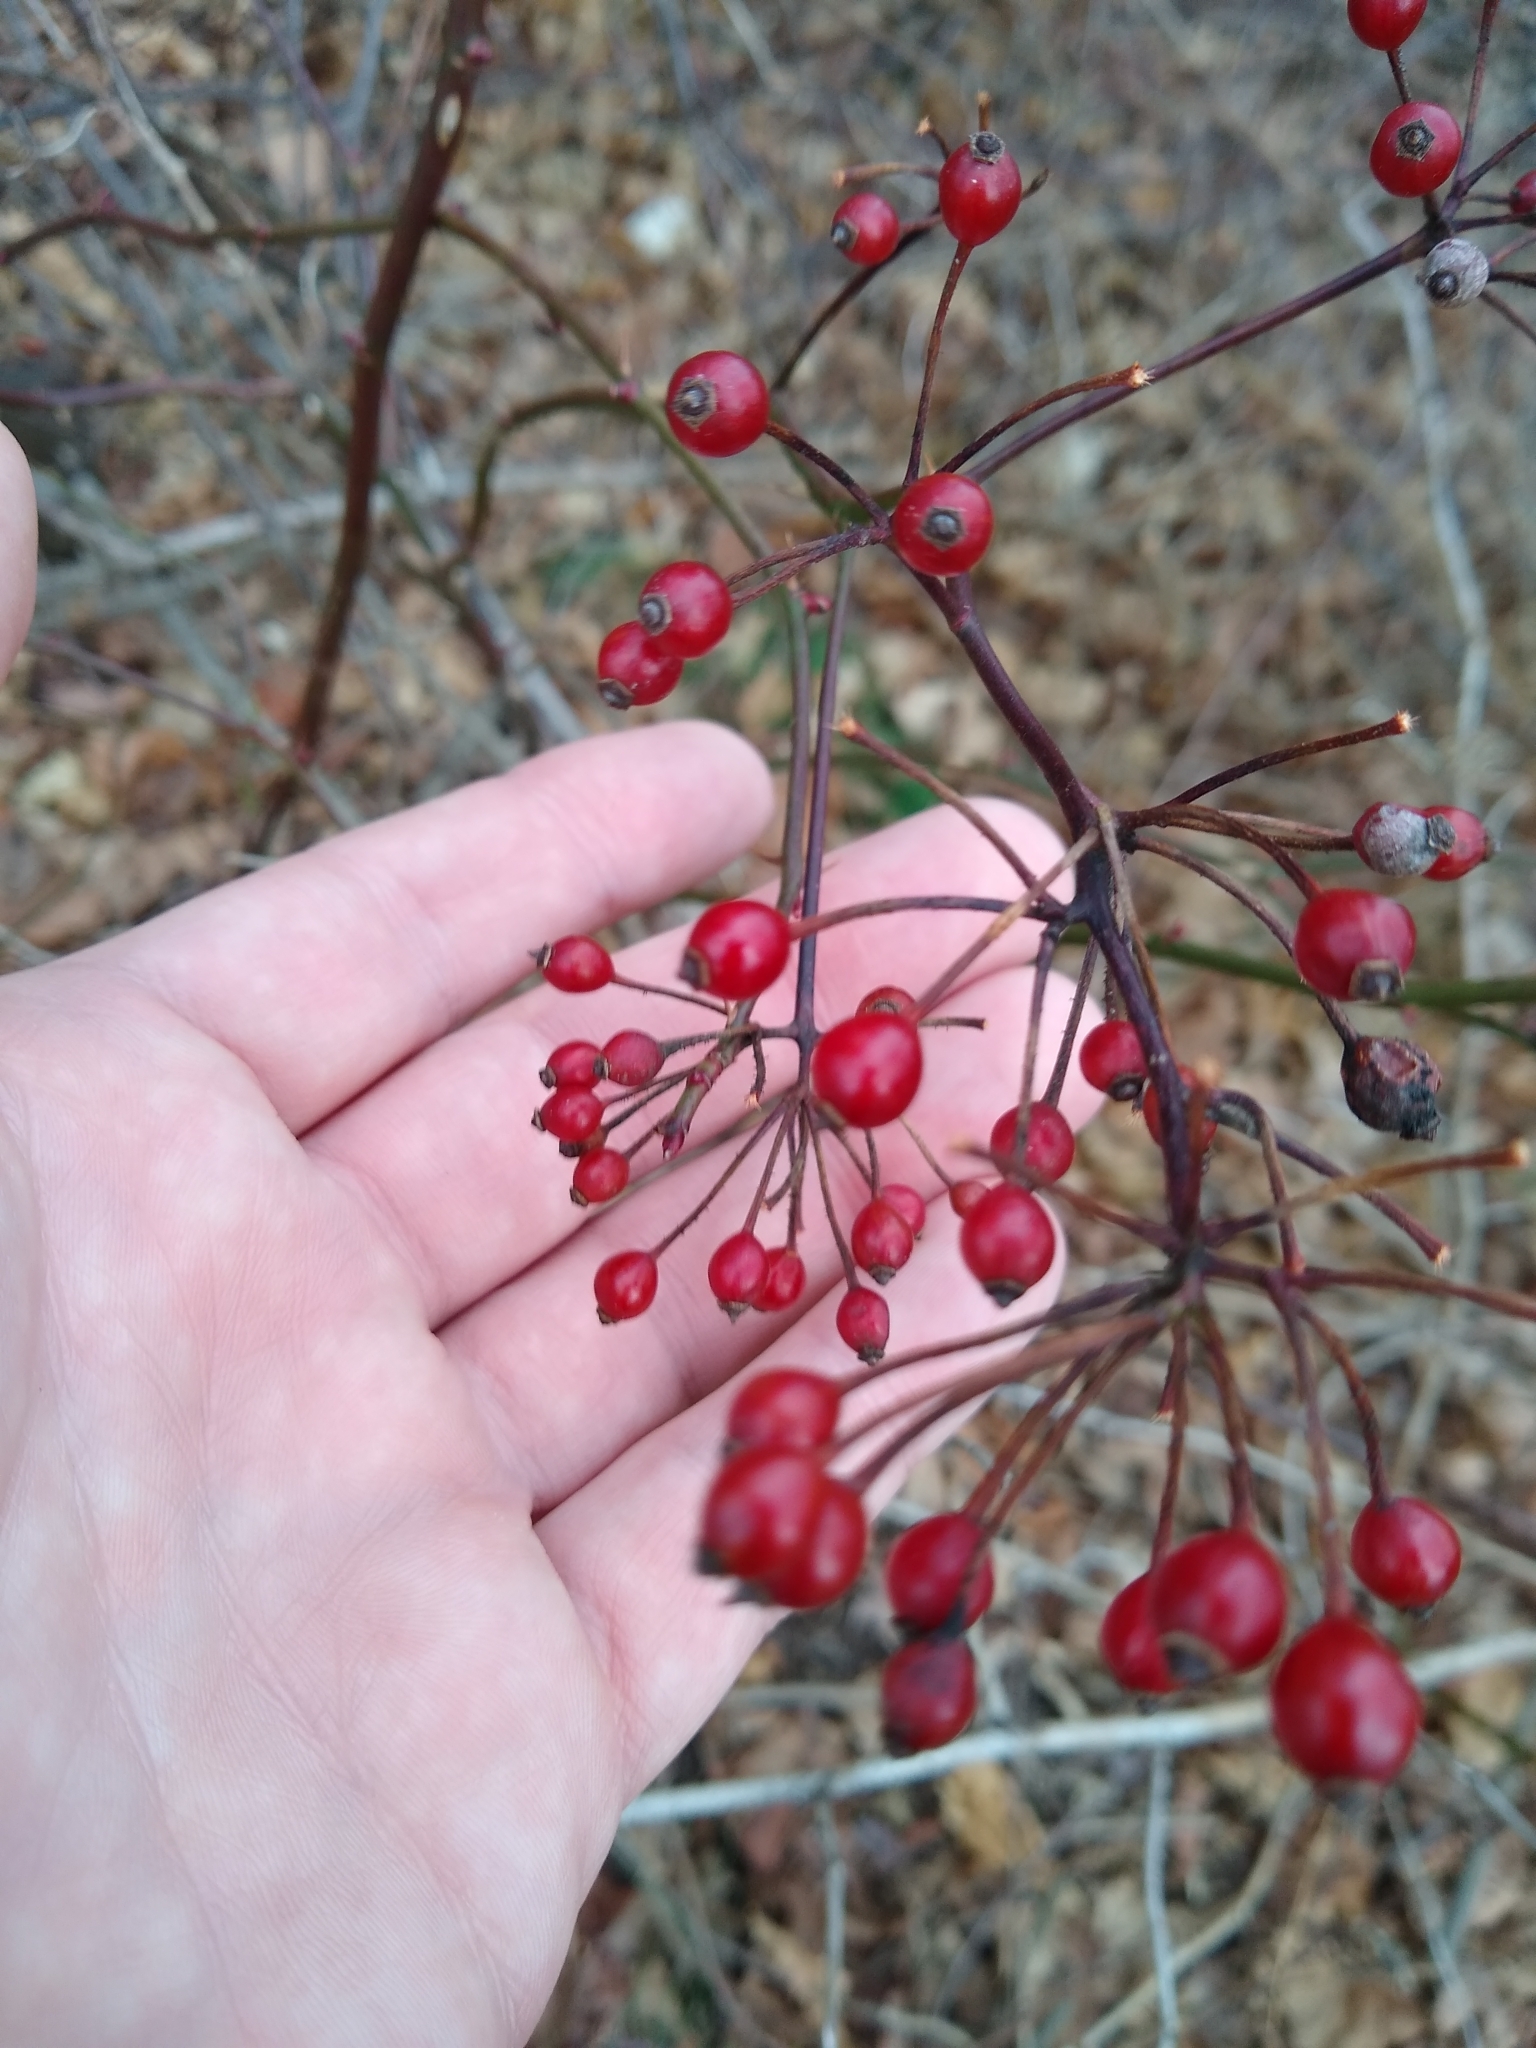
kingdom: Plantae
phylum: Tracheophyta
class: Magnoliopsida
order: Rosales
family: Rosaceae
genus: Rosa
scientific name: Rosa multiflora
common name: Multiflora rose
